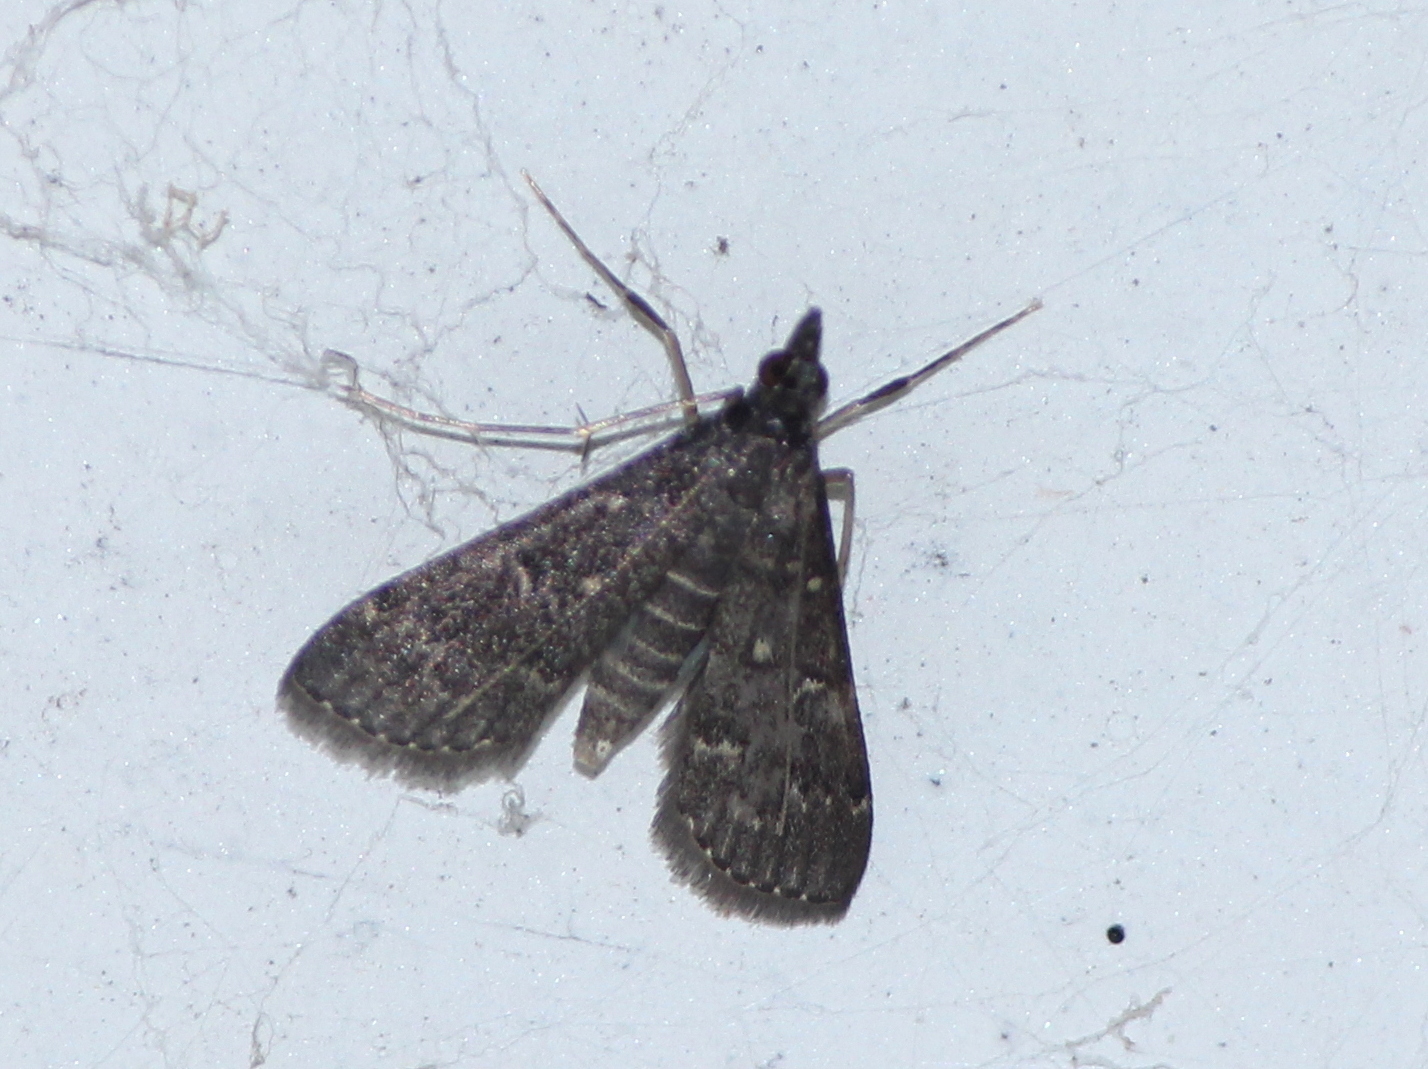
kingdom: Animalia
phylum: Arthropoda
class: Insecta
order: Lepidoptera
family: Crambidae
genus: Symmoracma
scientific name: Symmoracma minoralis
